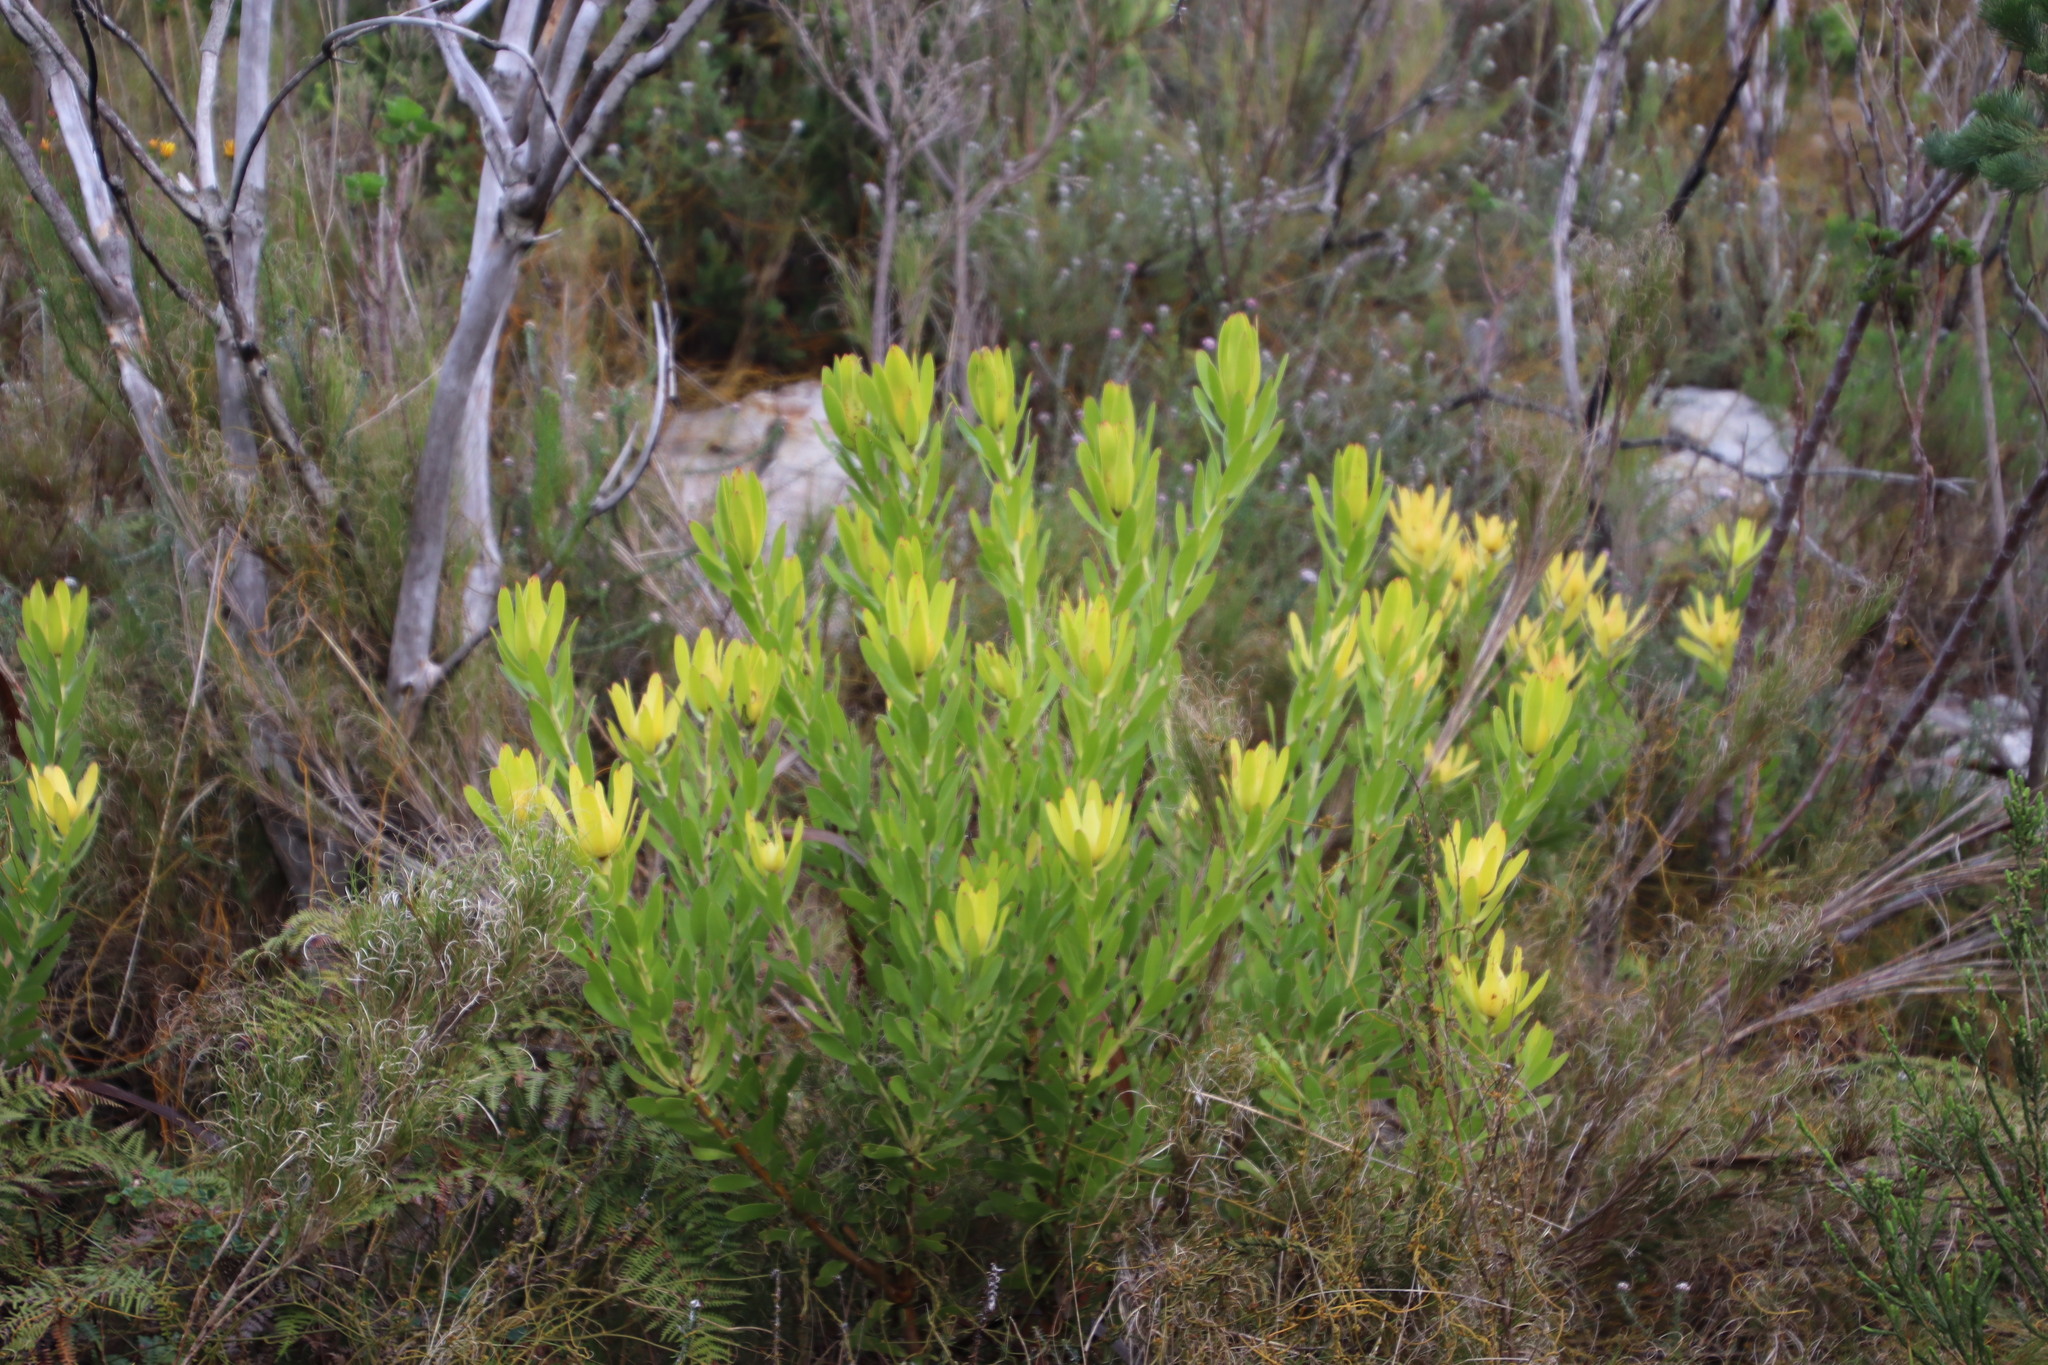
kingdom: Plantae
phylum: Tracheophyta
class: Magnoliopsida
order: Proteales
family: Proteaceae
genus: Leucadendron
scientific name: Leucadendron laureolum
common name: Golden sunshinebush
